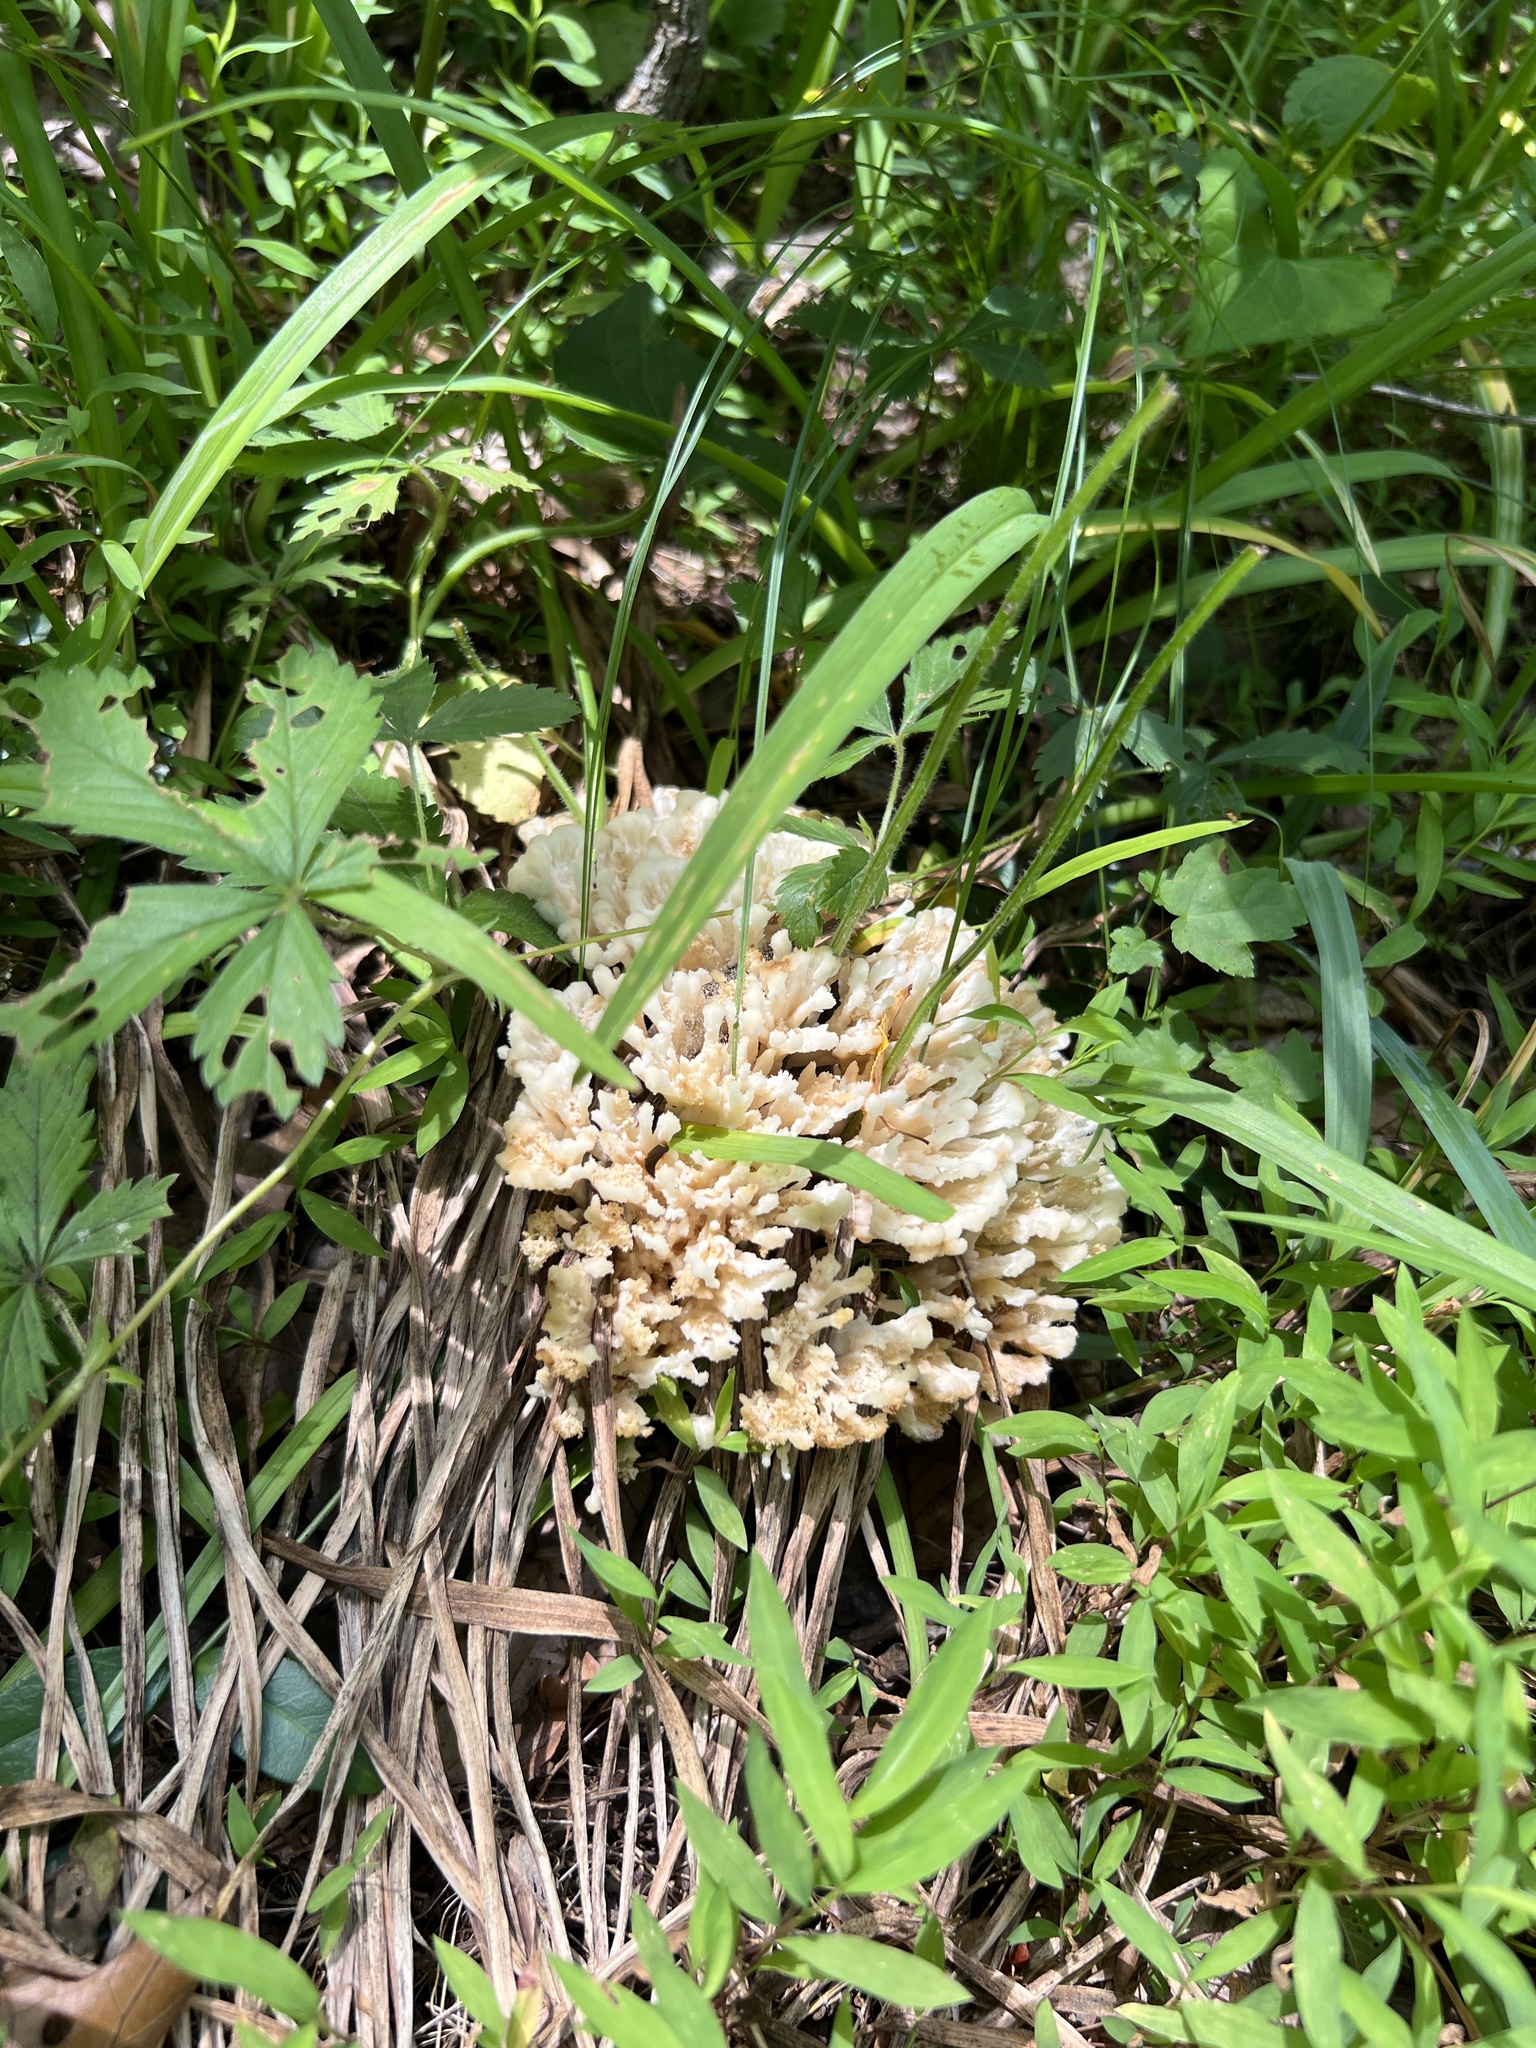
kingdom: Fungi
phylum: Basidiomycota
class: Agaricomycetes
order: Sebacinales
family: Sebacinaceae
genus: Sebacina
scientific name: Sebacina schweinitzii
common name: Jellied false coral fungus
